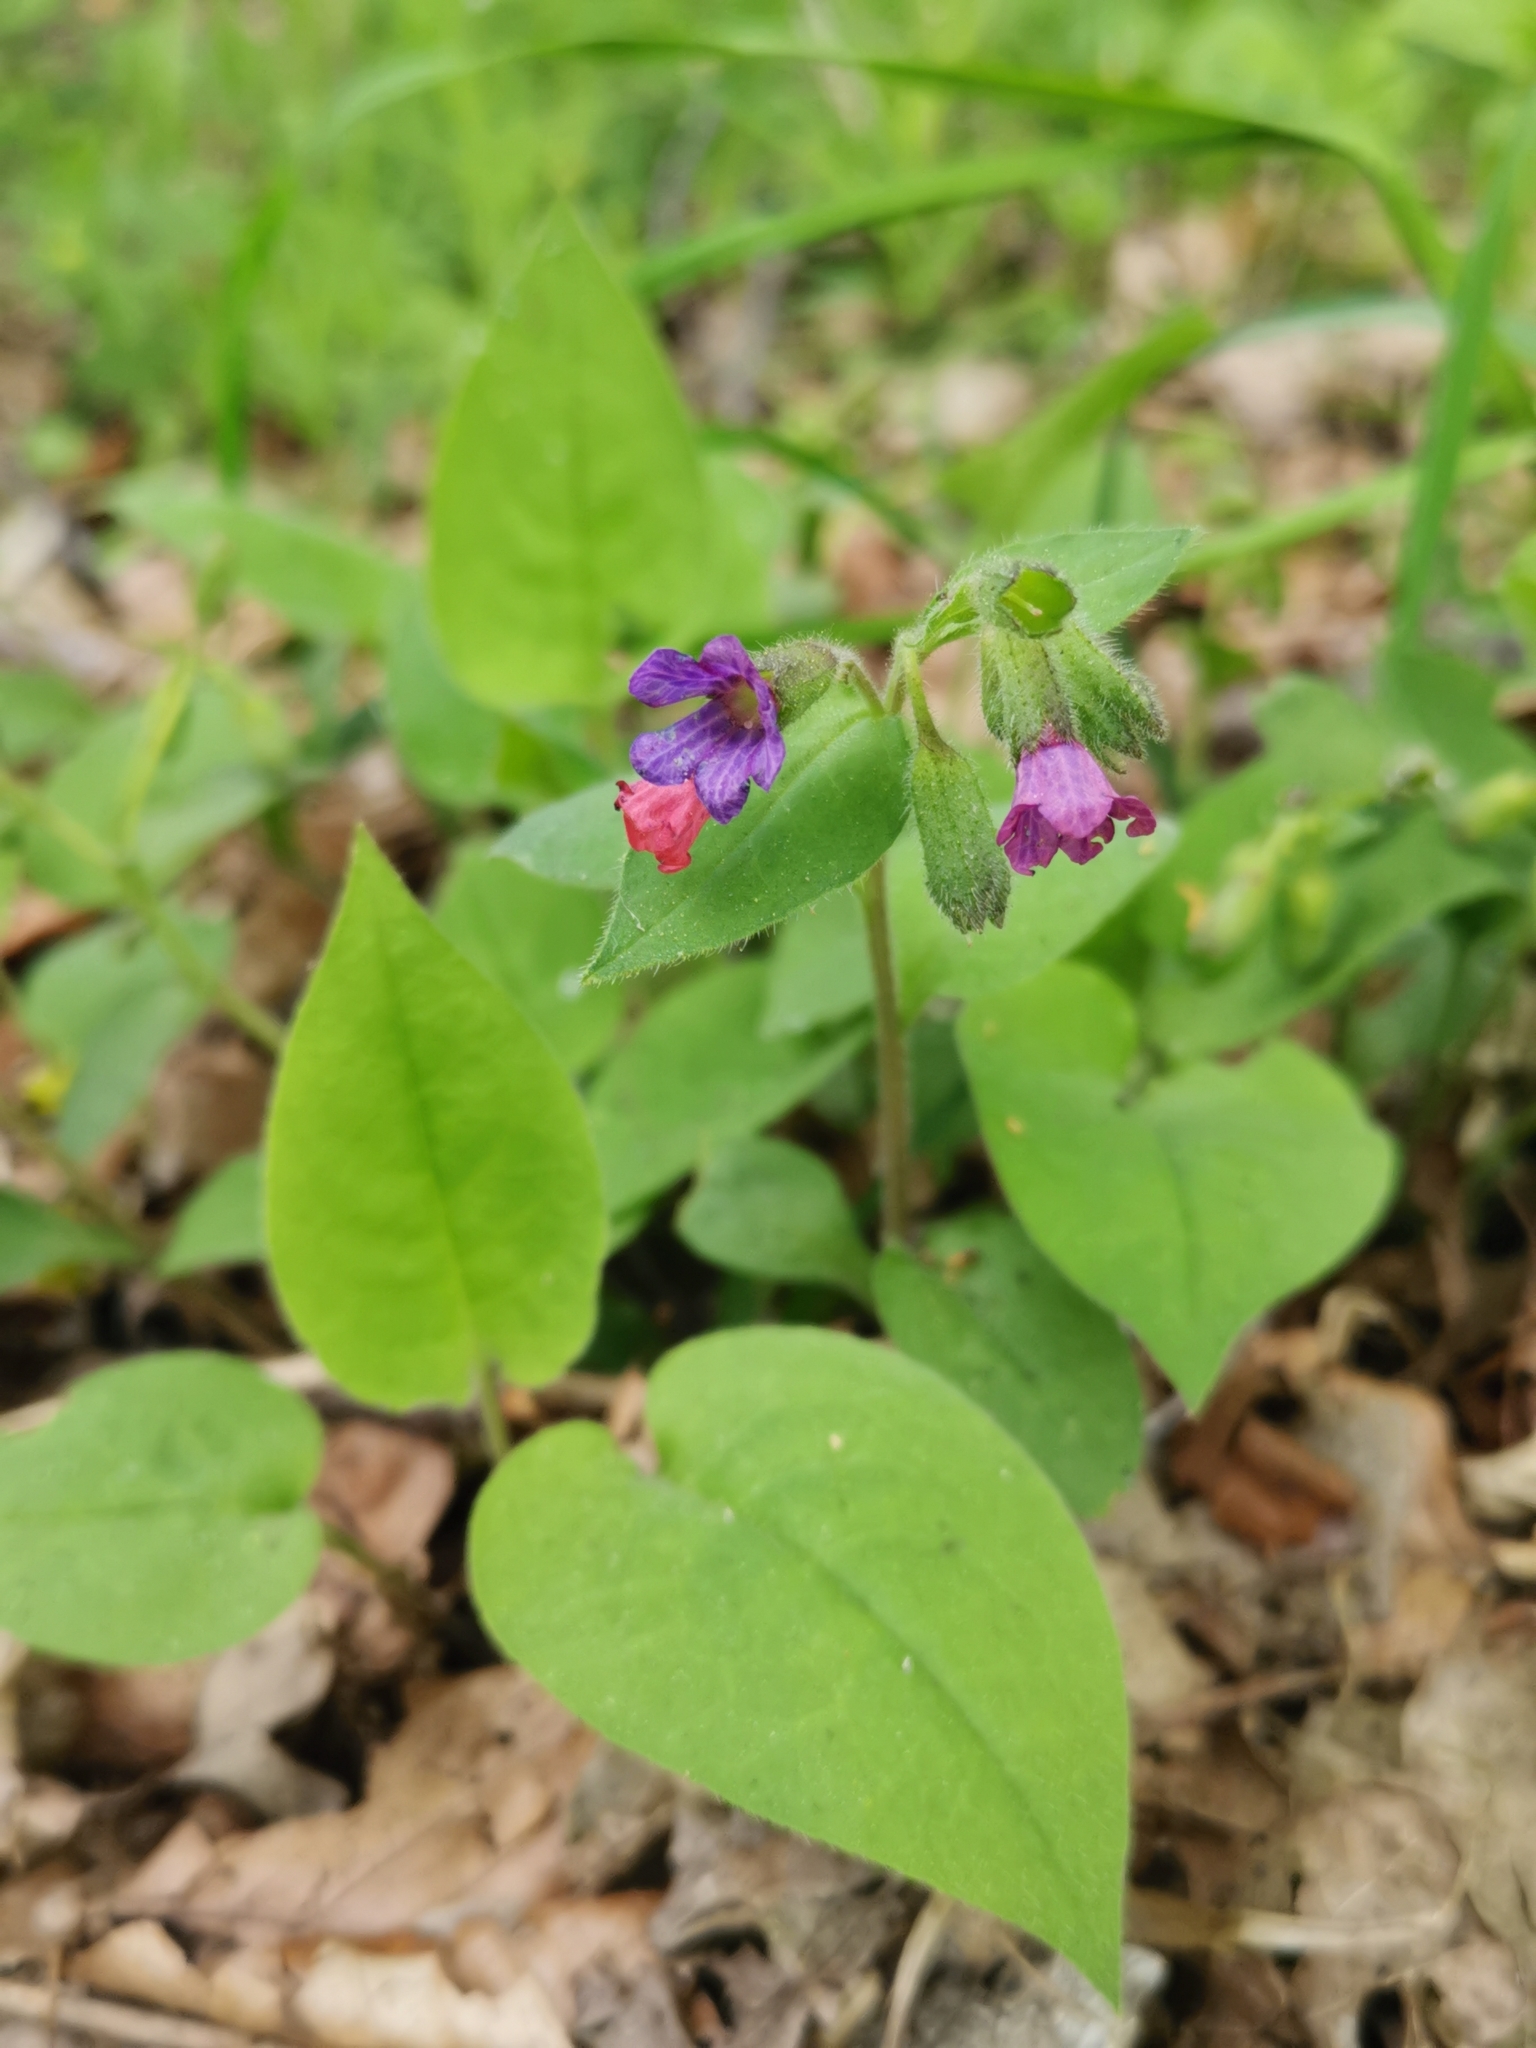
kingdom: Plantae
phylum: Tracheophyta
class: Magnoliopsida
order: Boraginales
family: Boraginaceae
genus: Pulmonaria
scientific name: Pulmonaria obscura
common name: Suffolk lungwort
